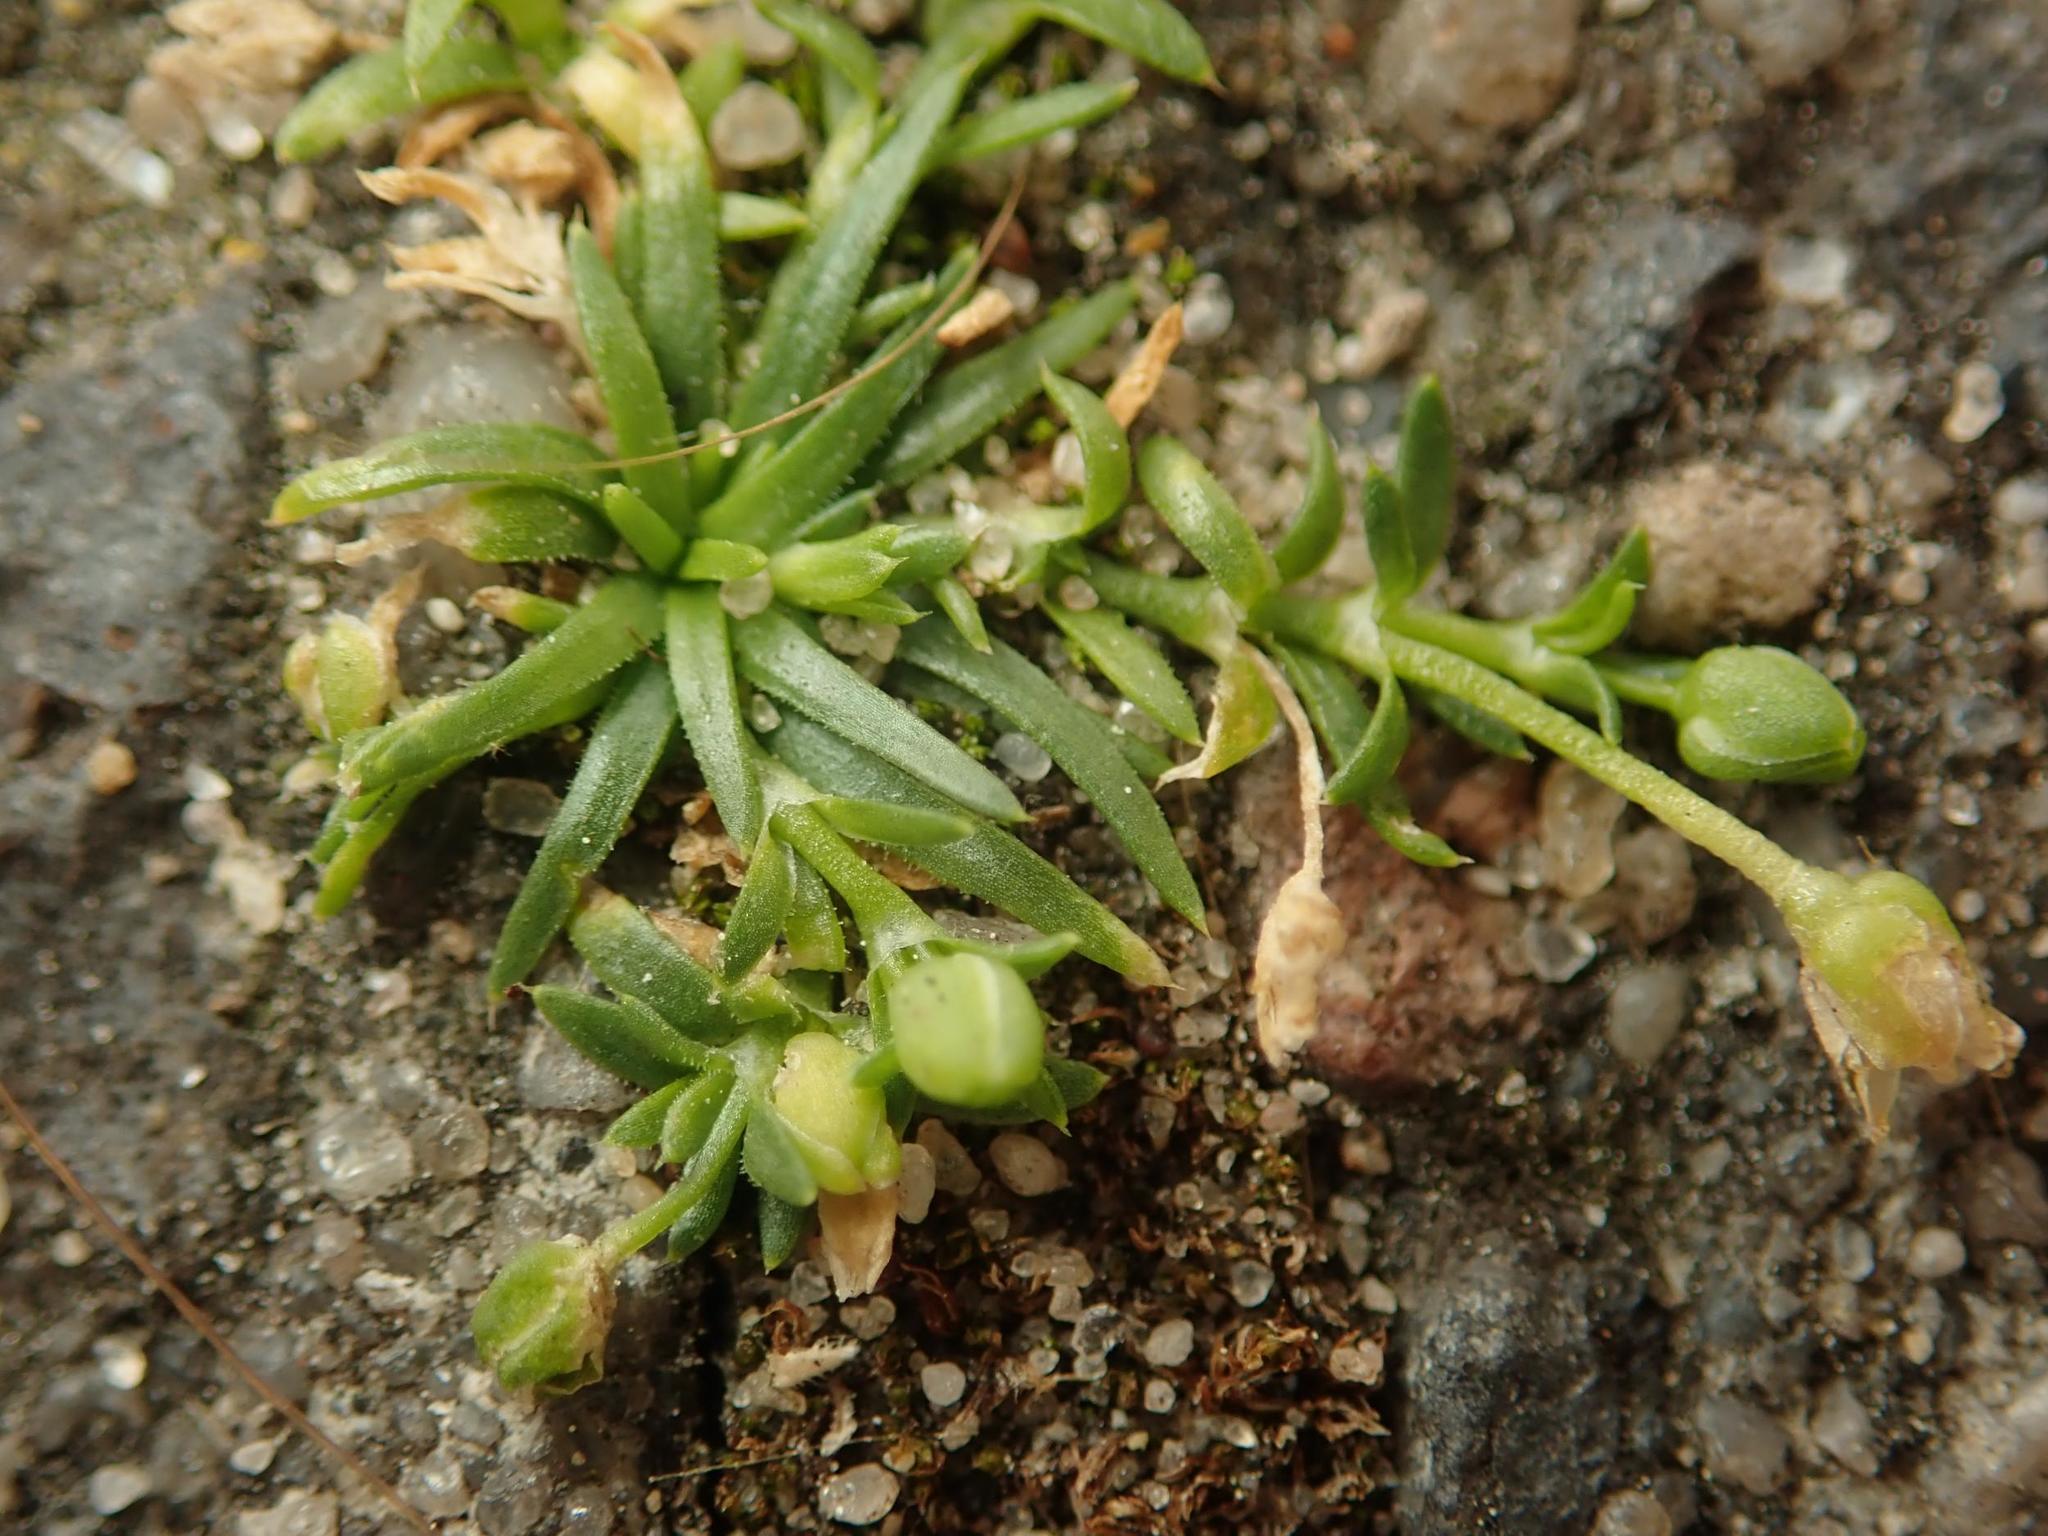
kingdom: Plantae
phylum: Tracheophyta
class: Magnoliopsida
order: Caryophyllales
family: Caryophyllaceae
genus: Sagina
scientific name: Sagina procumbens
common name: Procumbent pearlwort
